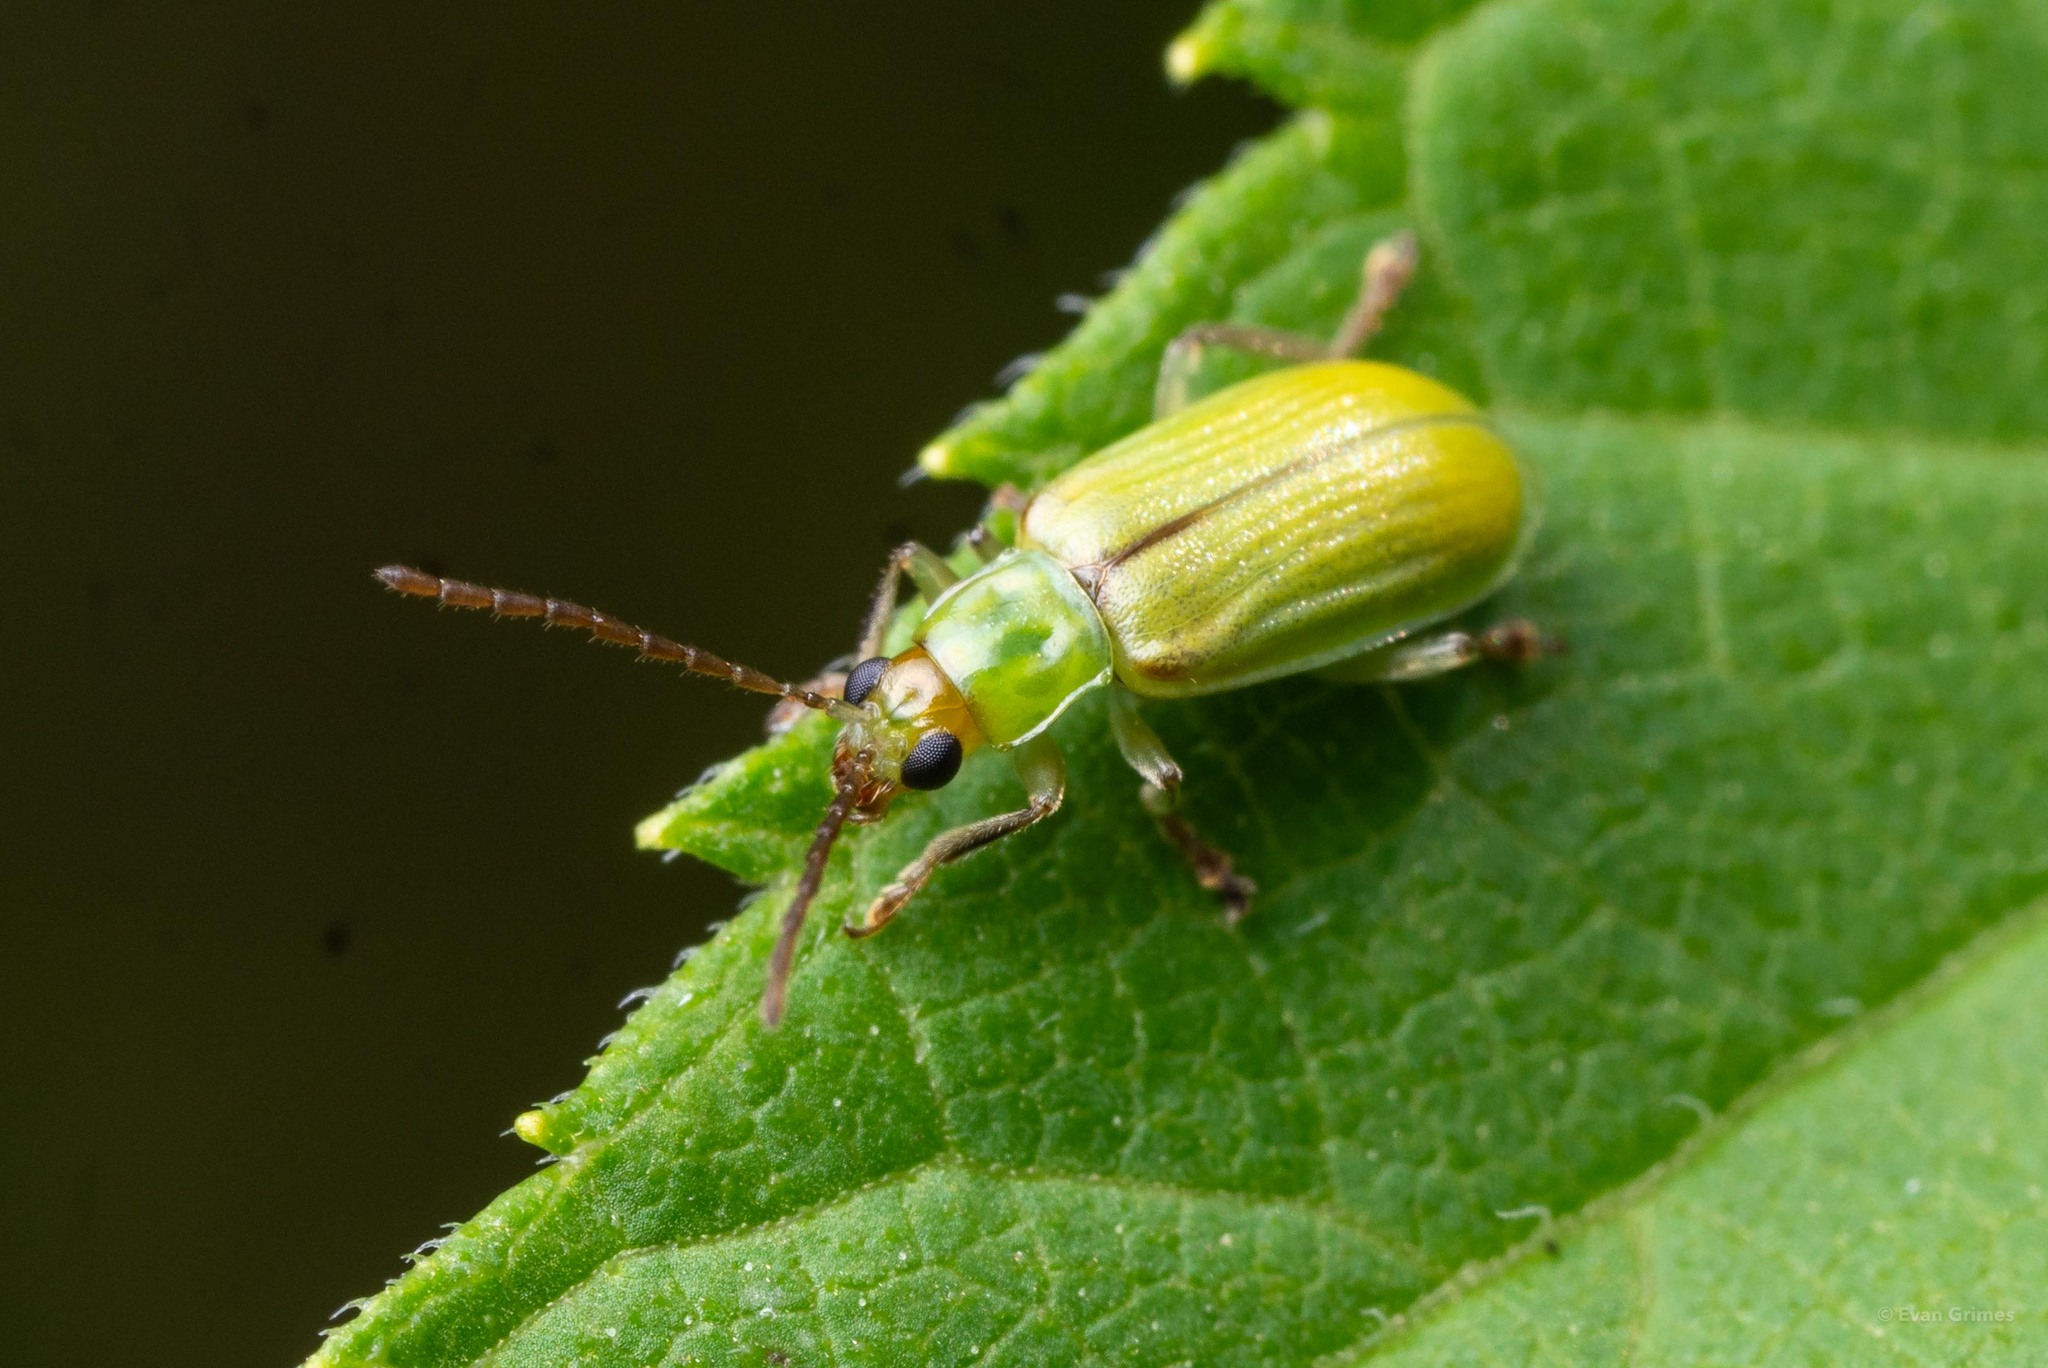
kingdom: Animalia
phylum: Arthropoda
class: Insecta
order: Coleoptera
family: Chrysomelidae
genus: Diabrotica
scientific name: Diabrotica barberi
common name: Northern corn rootworm
